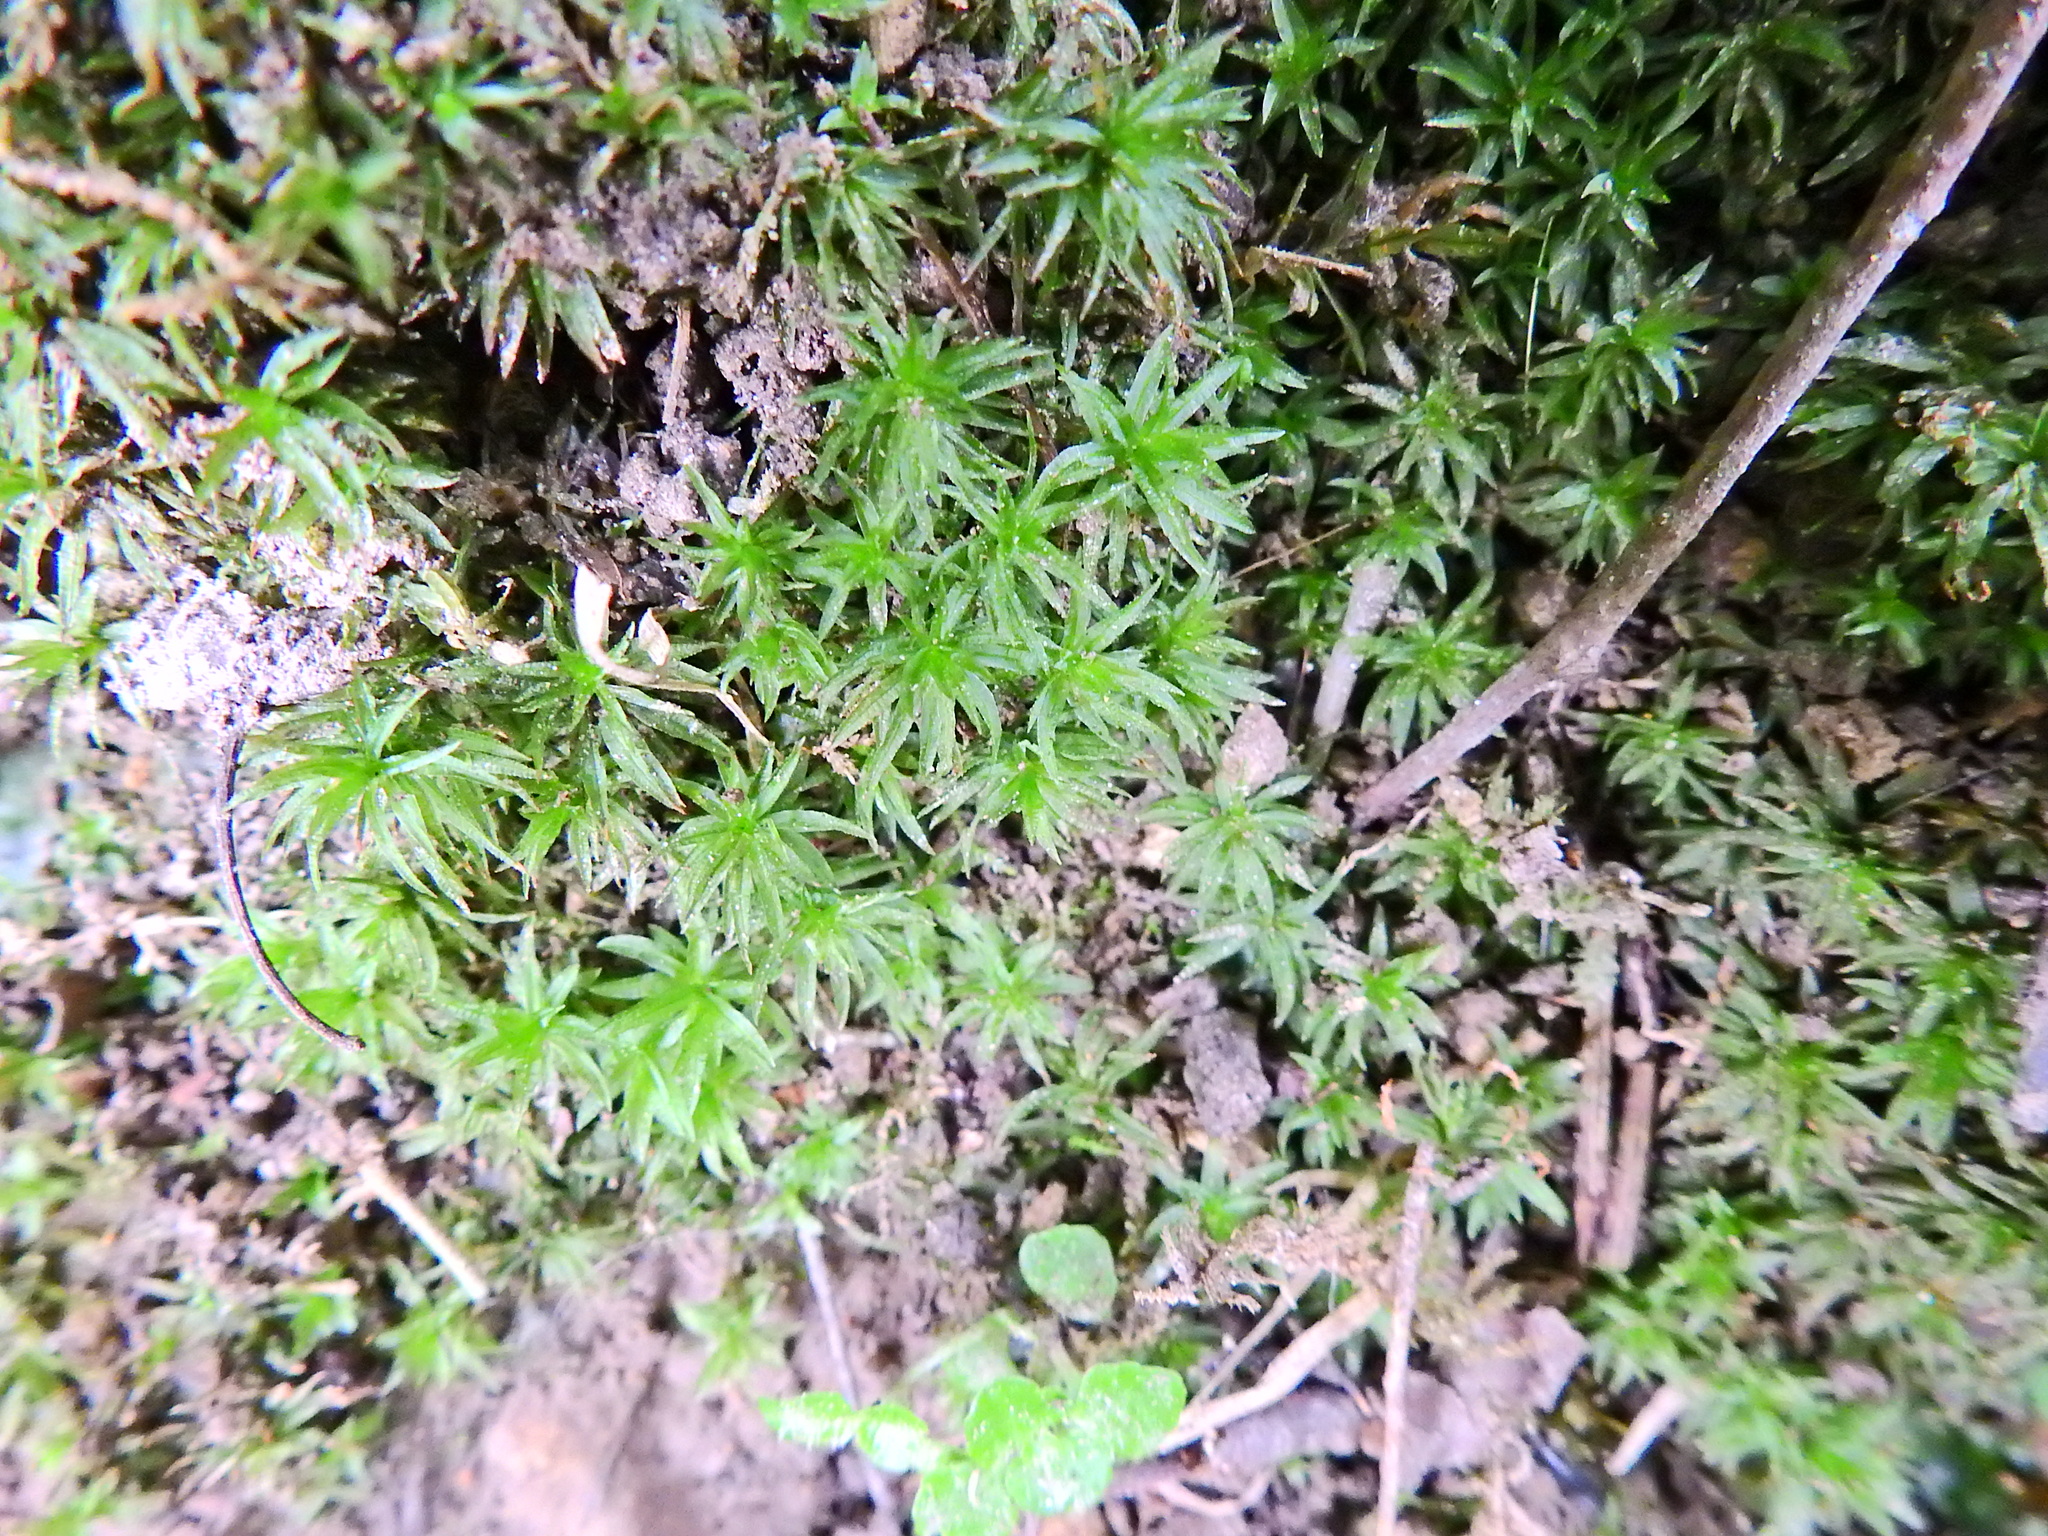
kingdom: Plantae
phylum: Bryophyta
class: Polytrichopsida
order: Polytrichales
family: Polytrichaceae
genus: Atrichum
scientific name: Atrichum undulatum
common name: Common smoothcap
